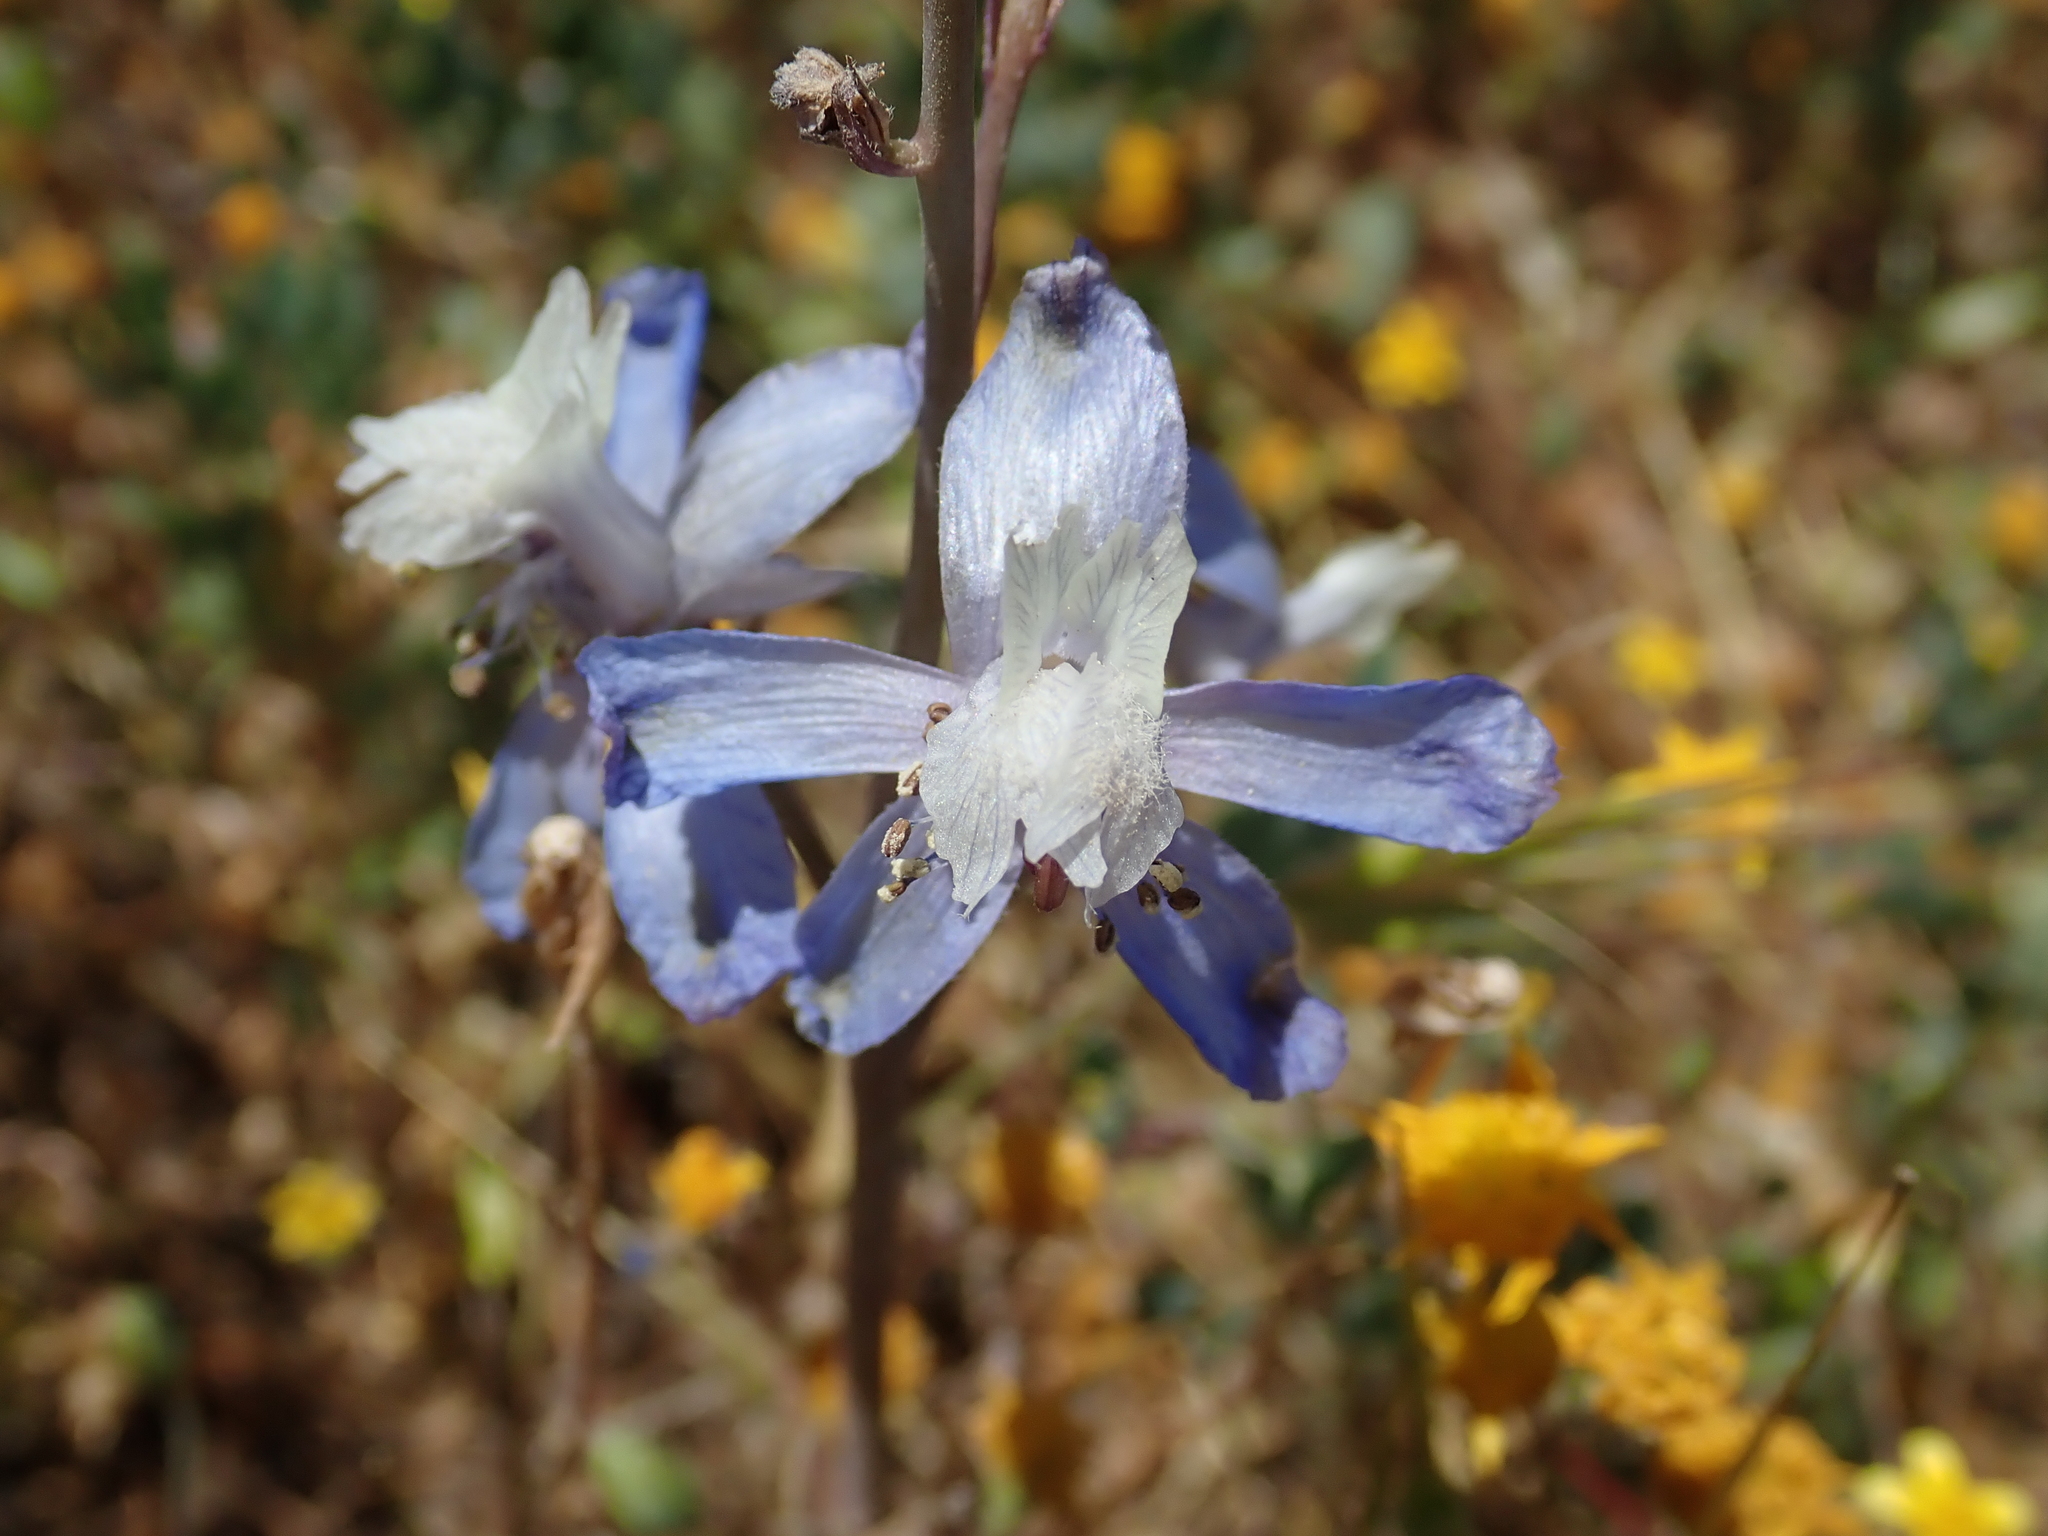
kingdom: Plantae
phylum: Tracheophyta
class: Magnoliopsida
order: Ranunculales
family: Ranunculaceae
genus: Delphinium
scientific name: Delphinium recurvatum
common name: Recurved larkspur
